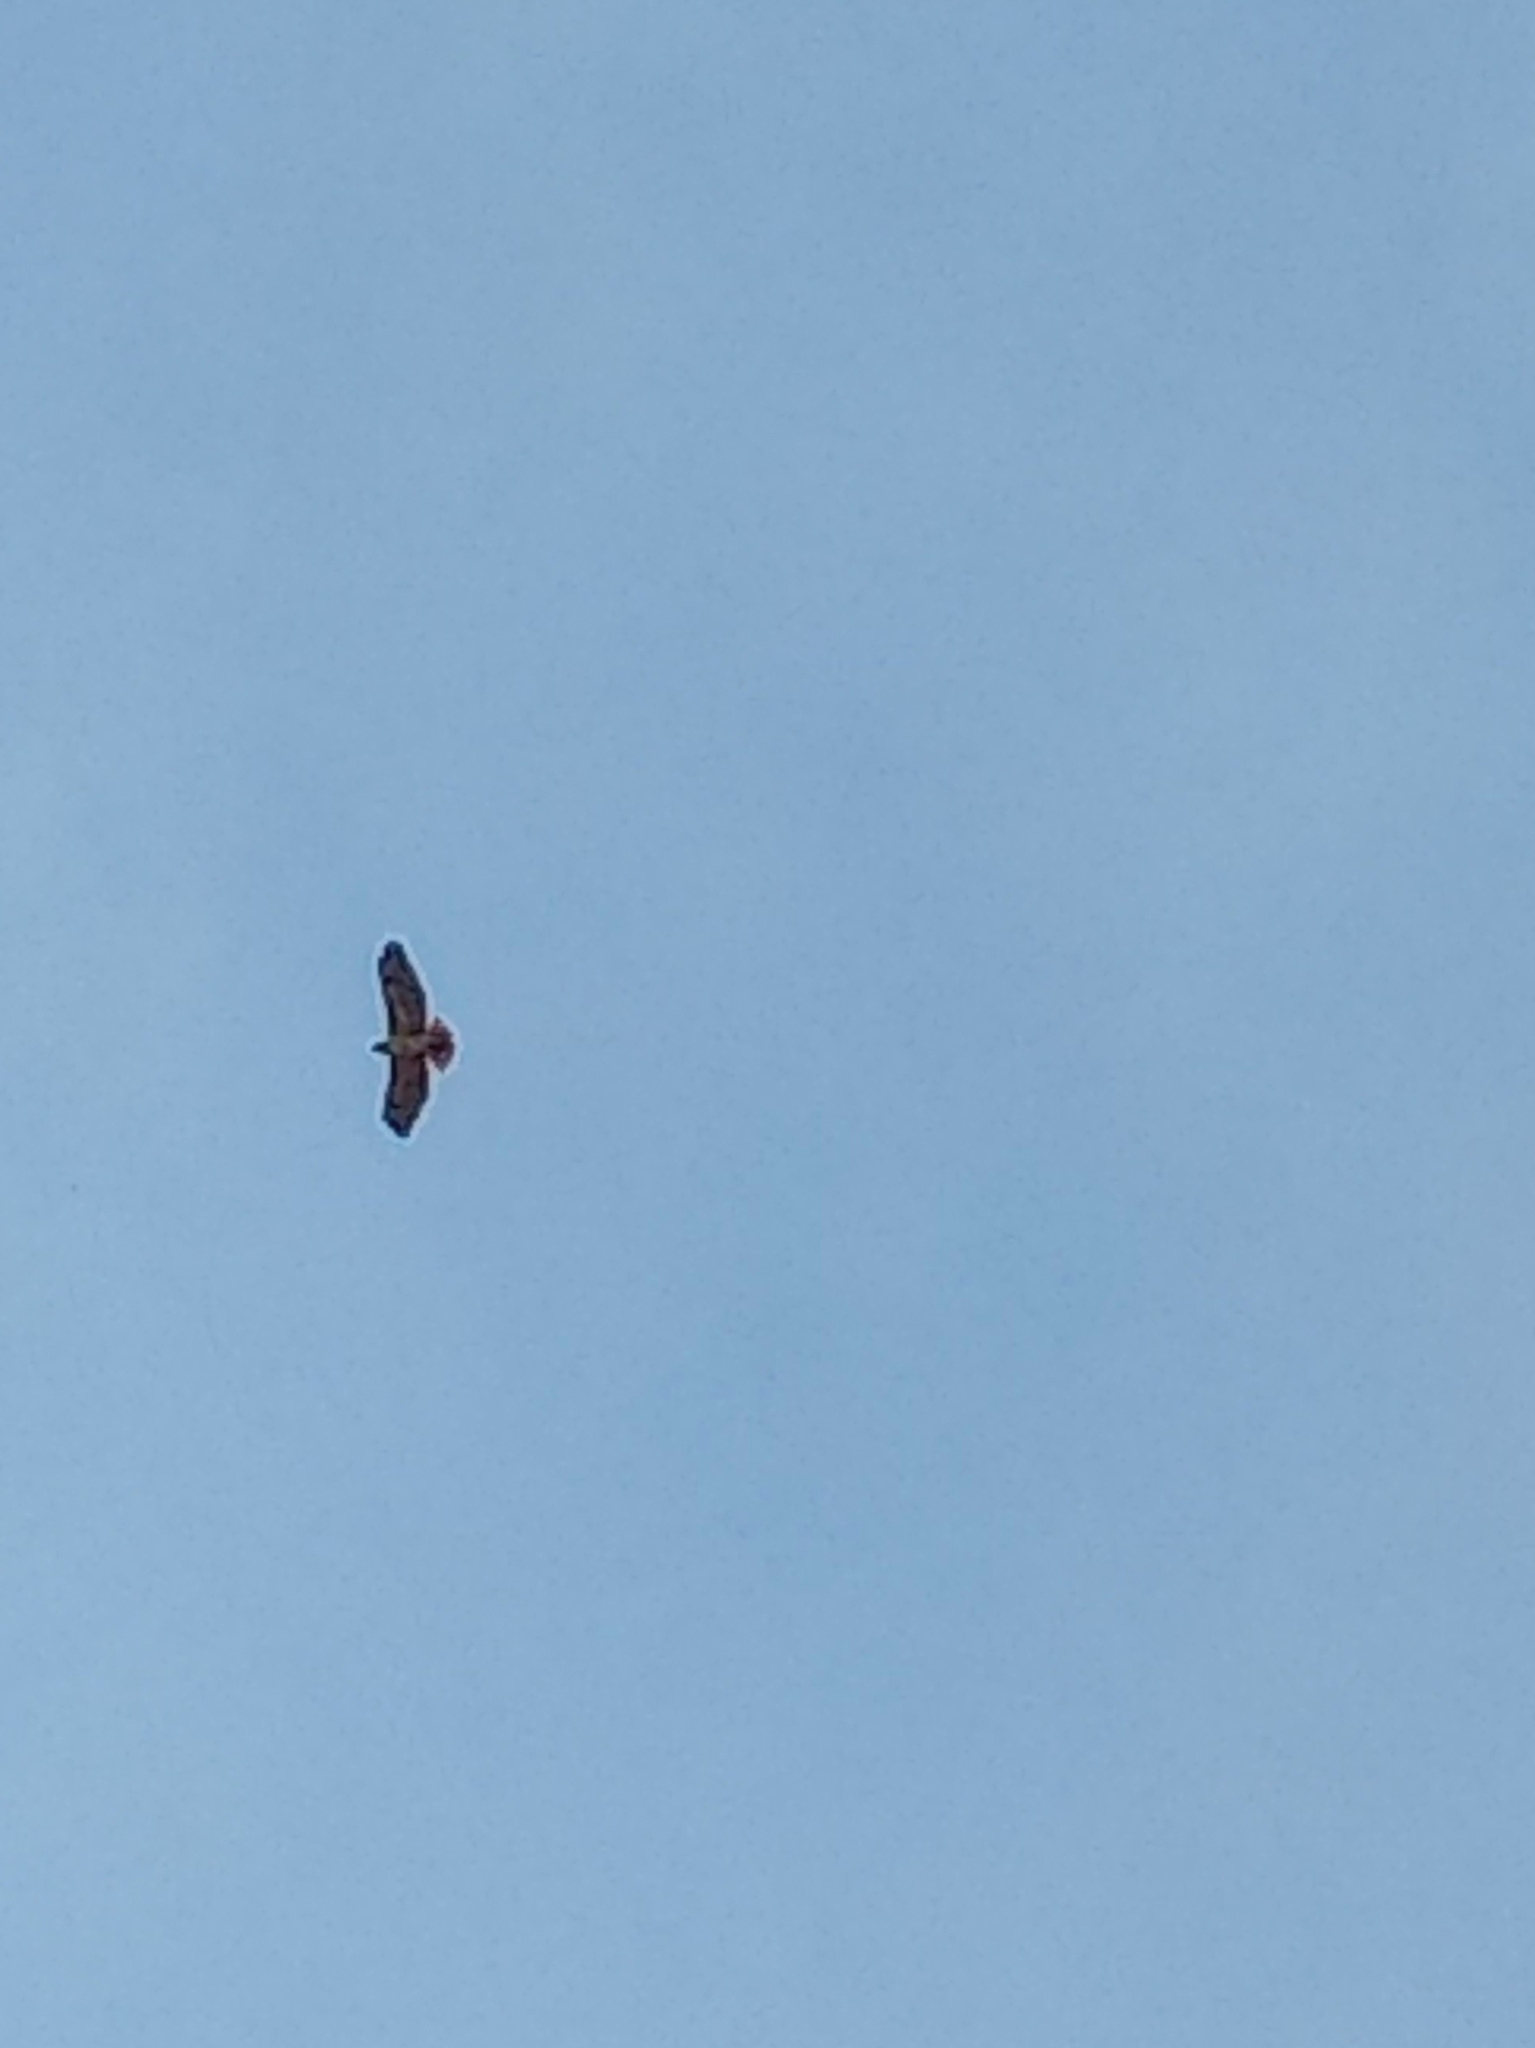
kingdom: Animalia
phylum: Chordata
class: Aves
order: Accipitriformes
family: Accipitridae
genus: Buteo
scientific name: Buteo jamaicensis
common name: Red-tailed hawk
